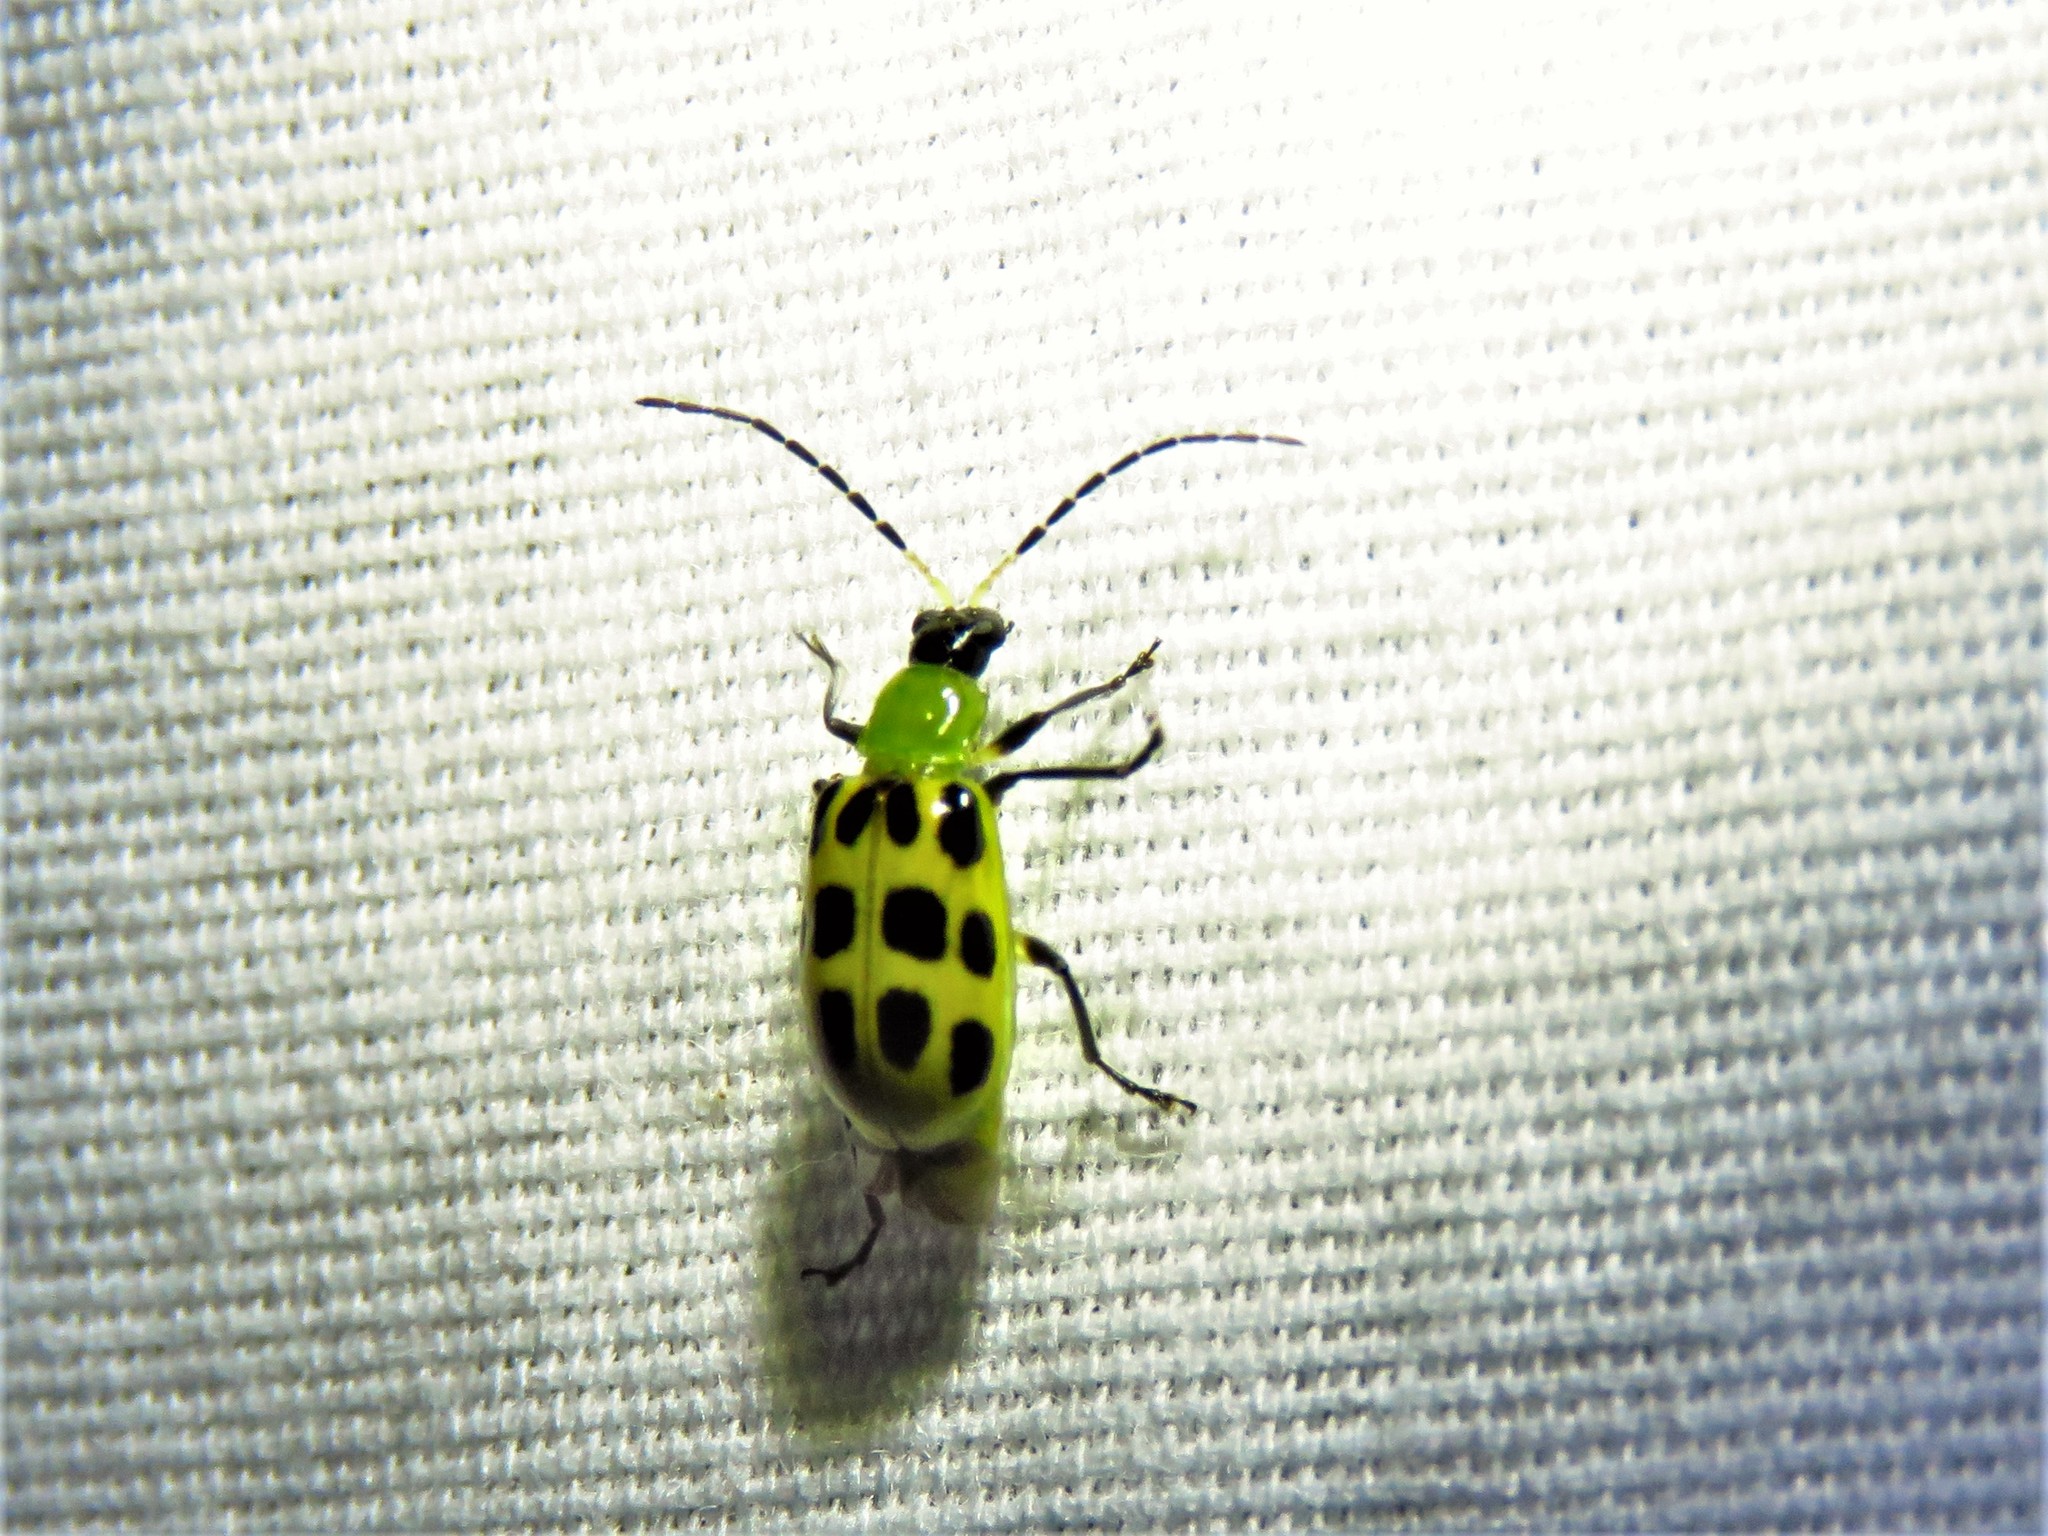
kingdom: Animalia
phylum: Arthropoda
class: Insecta
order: Coleoptera
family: Chrysomelidae
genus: Diabrotica
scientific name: Diabrotica undecimpunctata
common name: Spotted cucumber beetle
